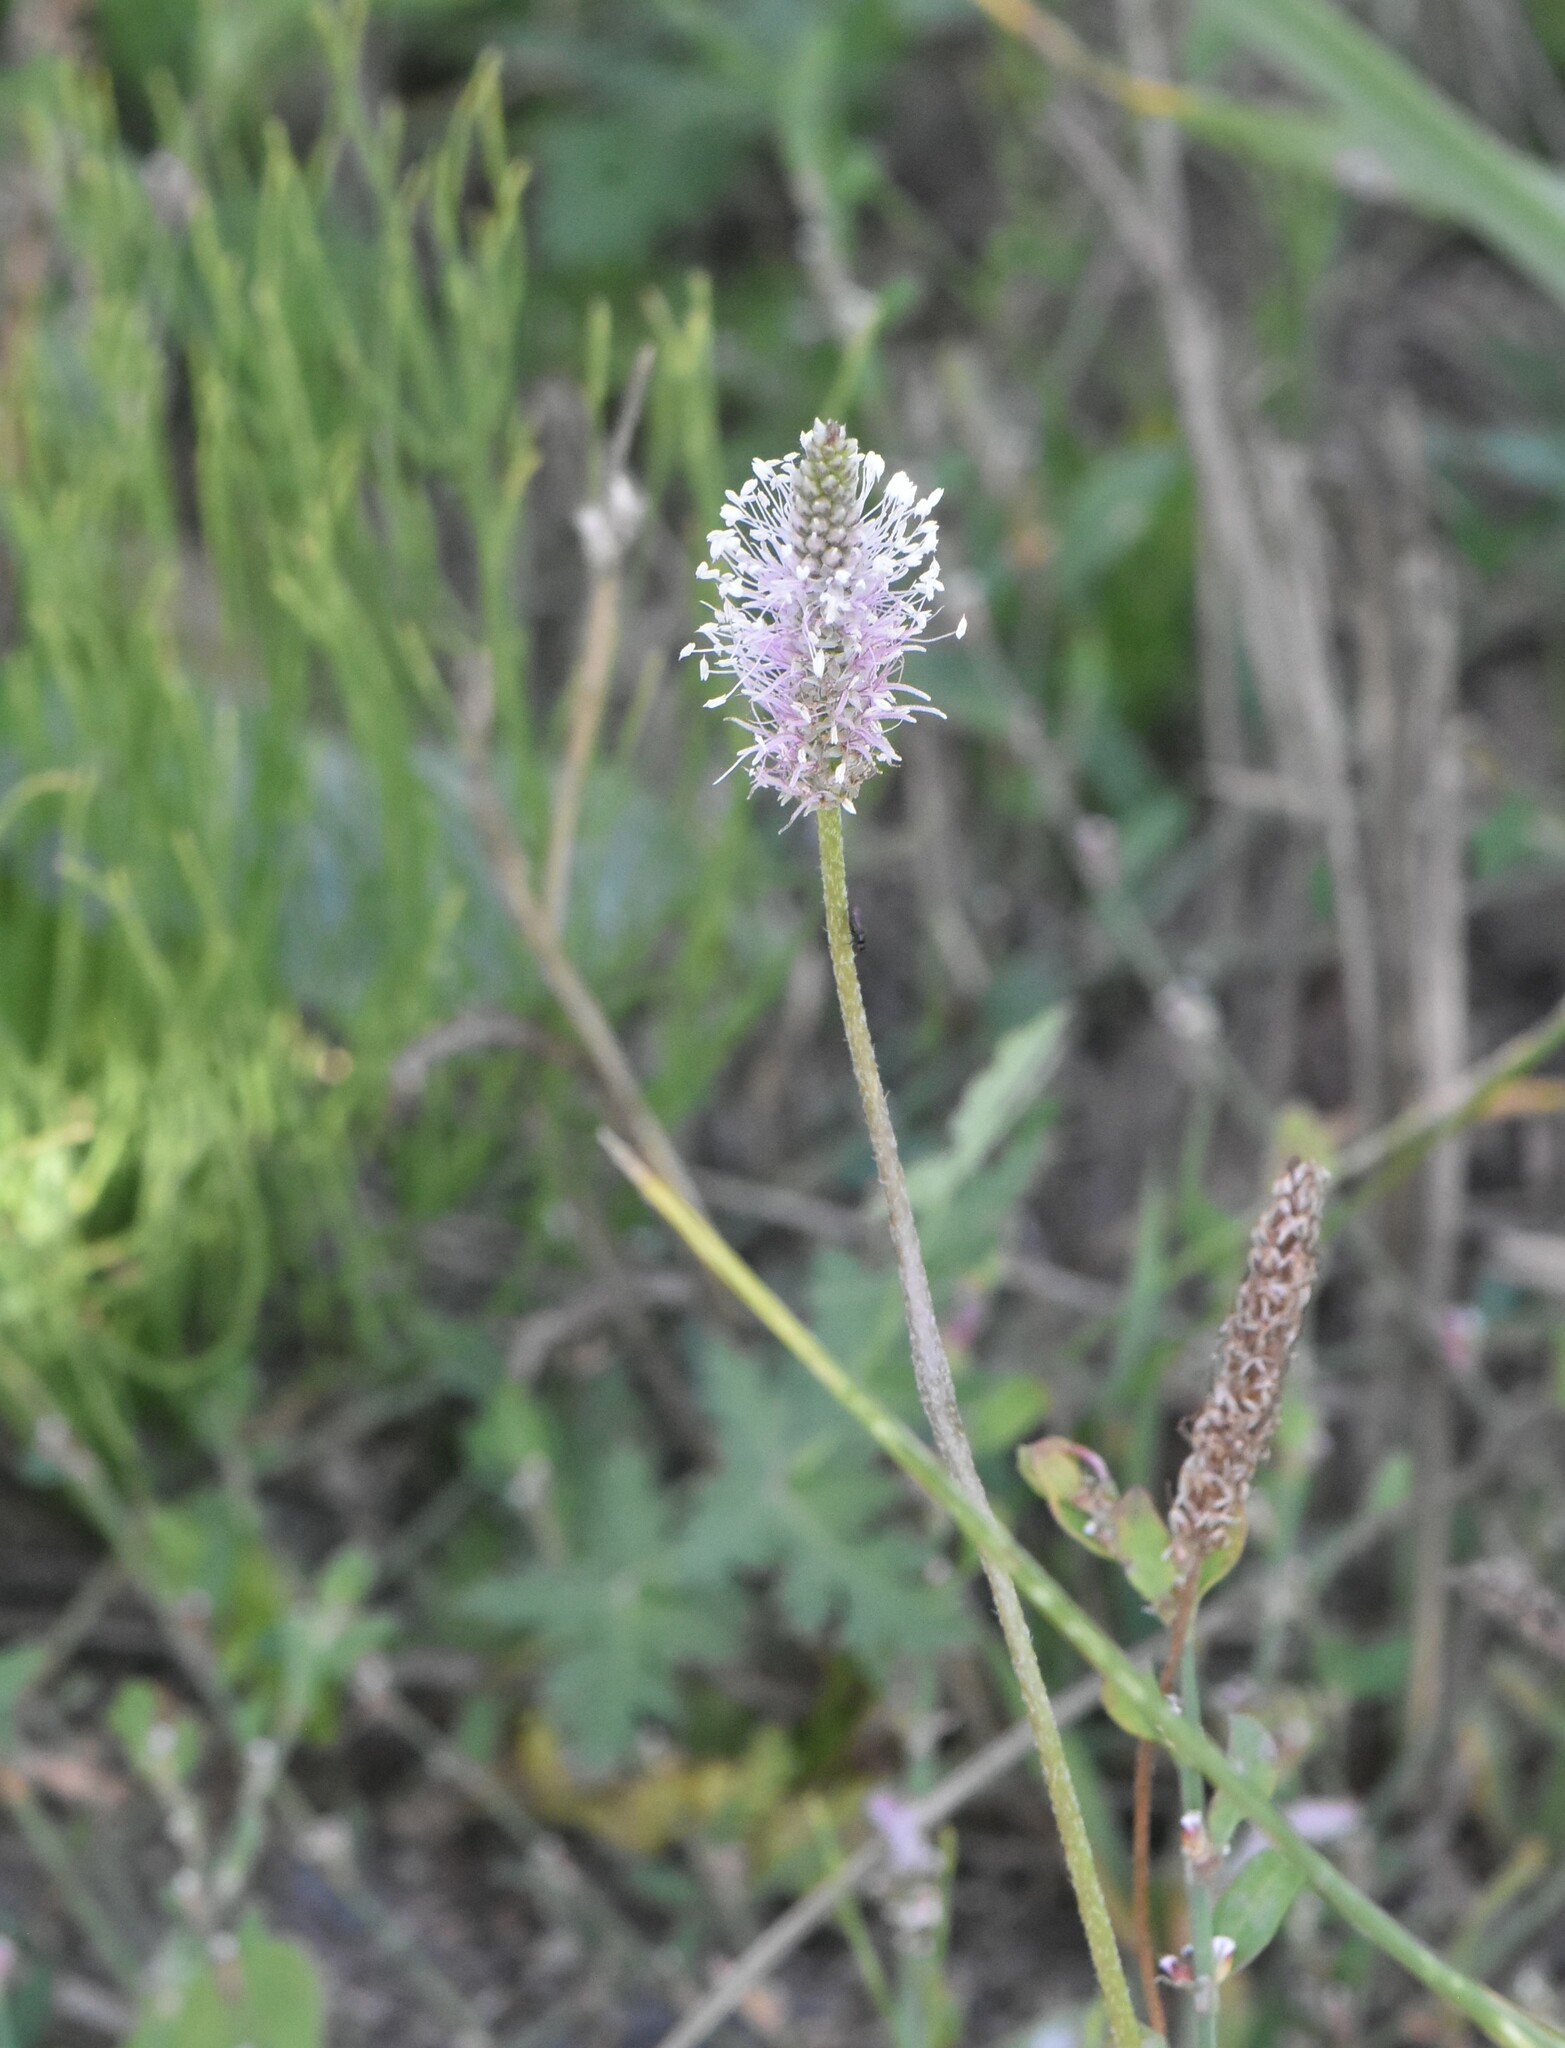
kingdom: Plantae
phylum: Tracheophyta
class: Magnoliopsida
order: Lamiales
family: Plantaginaceae
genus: Plantago
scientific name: Plantago media
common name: Hoary plantain
